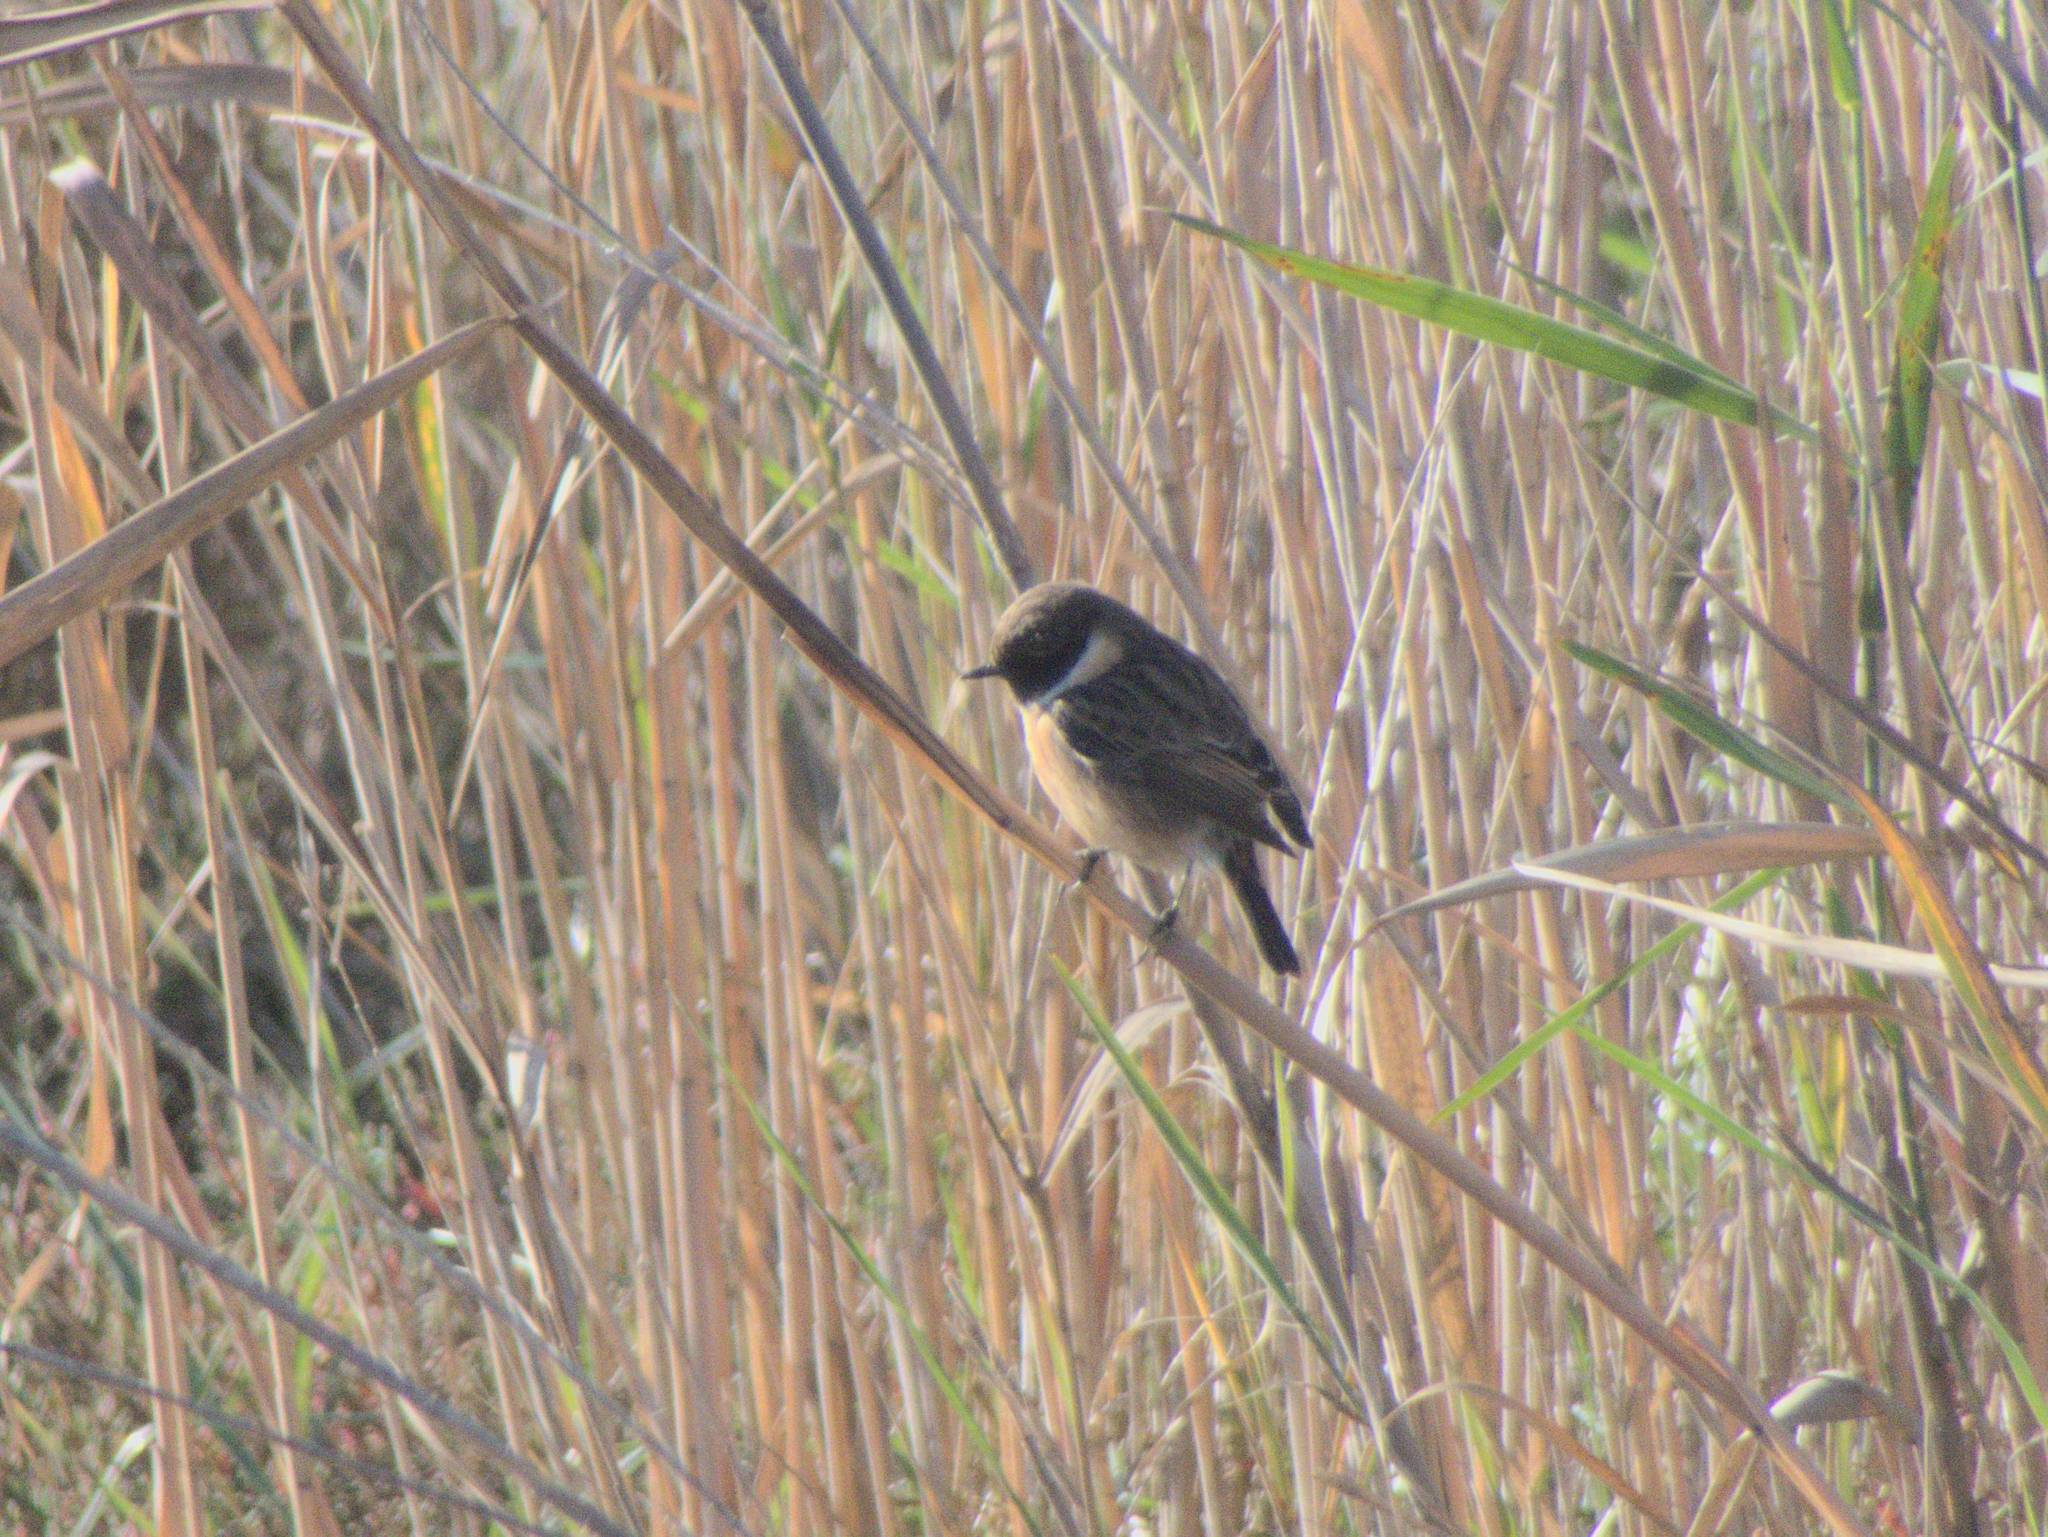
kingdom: Animalia
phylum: Chordata
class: Aves
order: Passeriformes
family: Muscicapidae
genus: Saxicola
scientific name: Saxicola rubicola
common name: European stonechat
